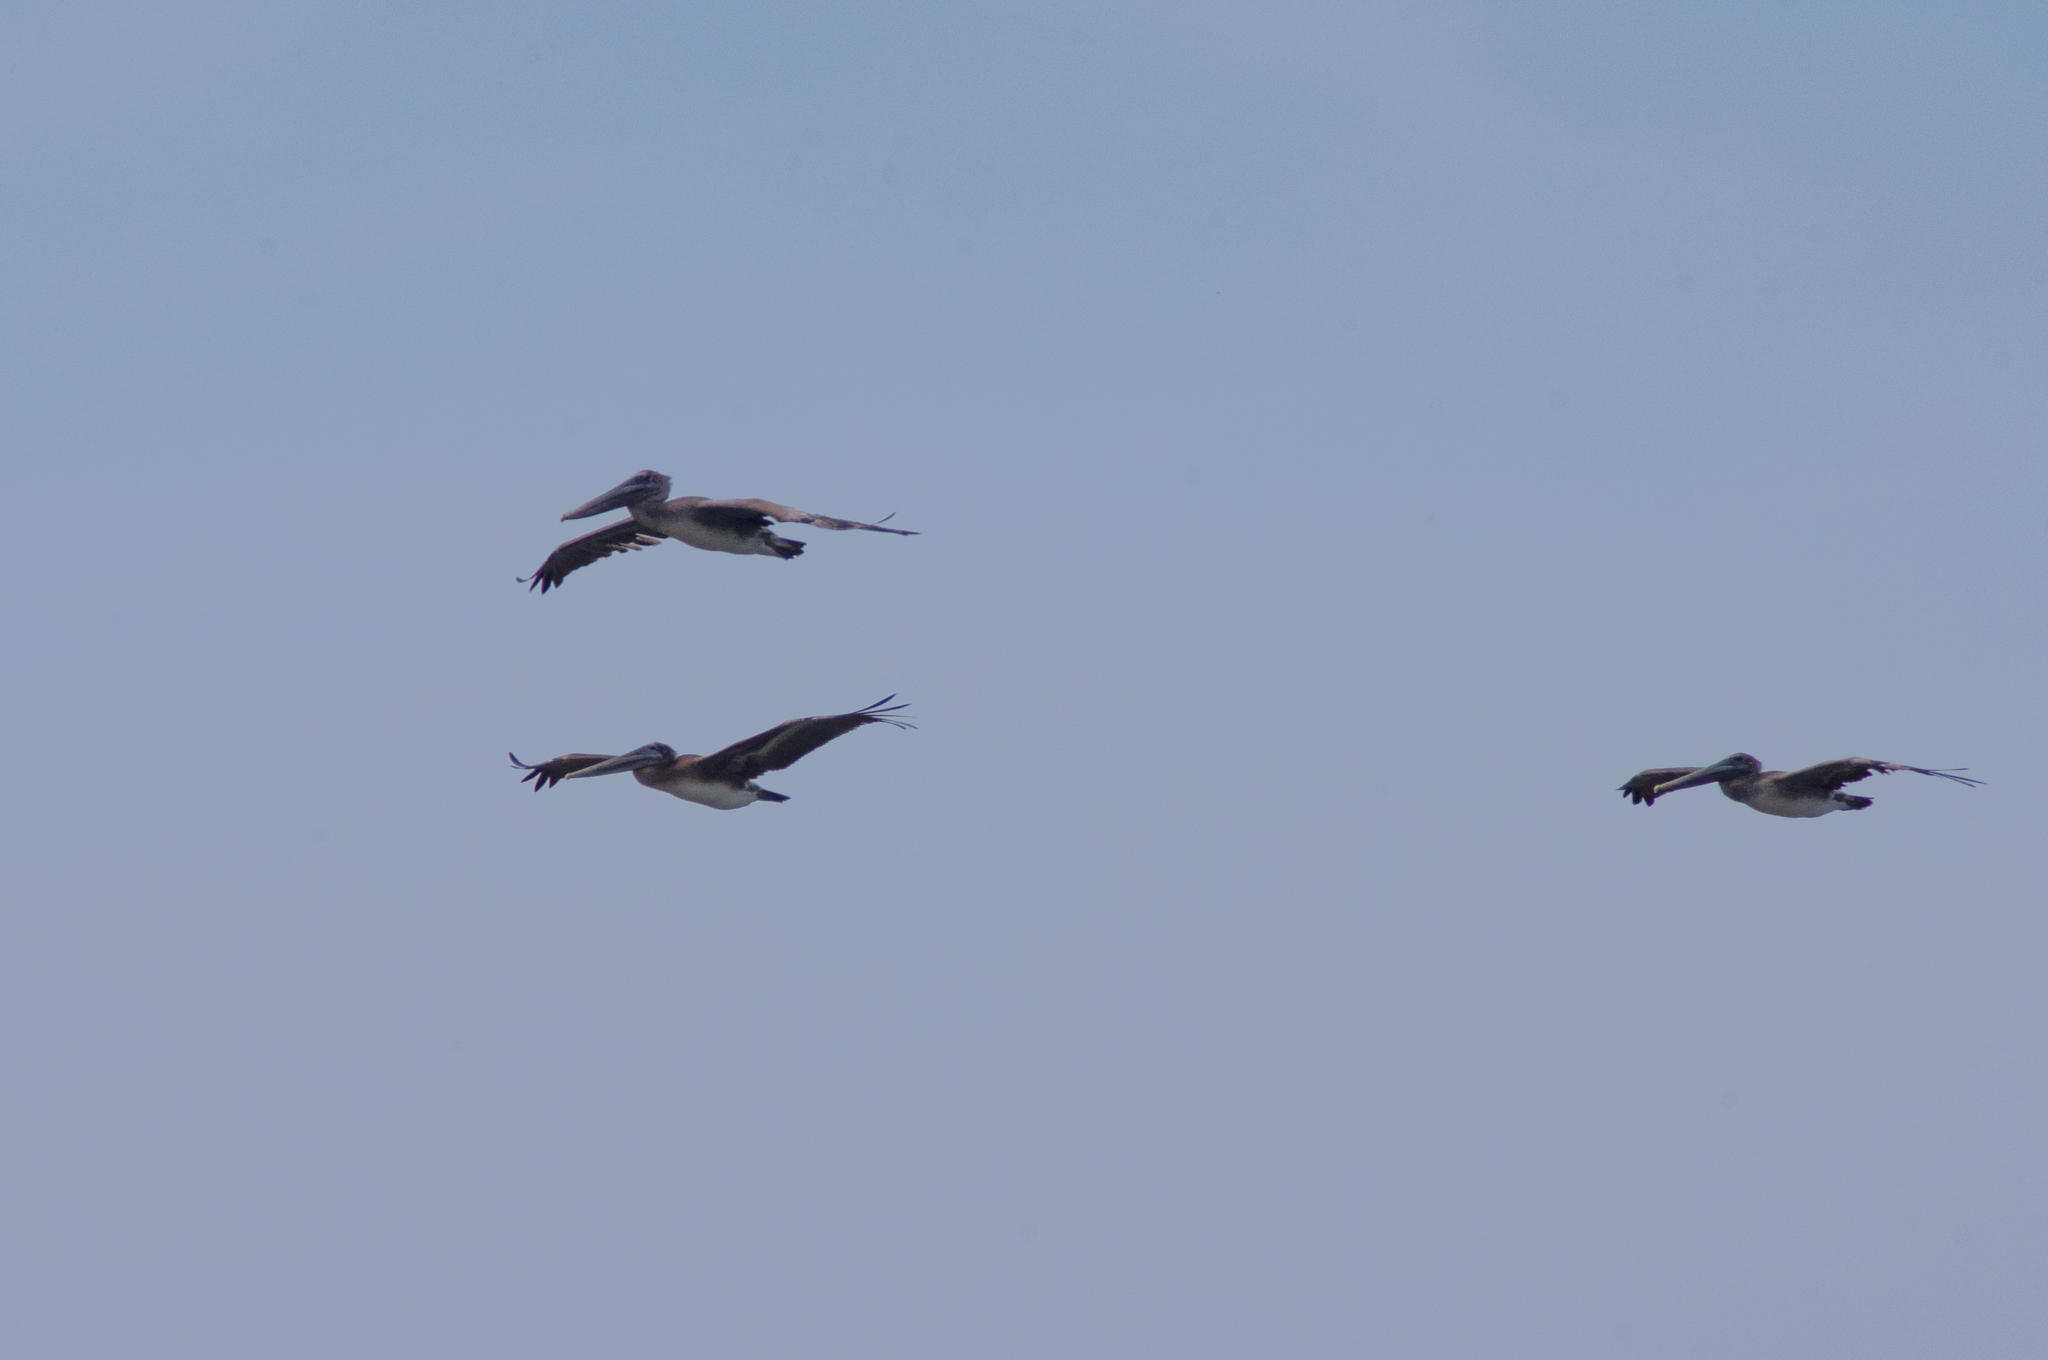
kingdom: Animalia
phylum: Chordata
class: Aves
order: Pelecaniformes
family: Pelecanidae
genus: Pelecanus
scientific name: Pelecanus occidentalis
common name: Brown pelican
